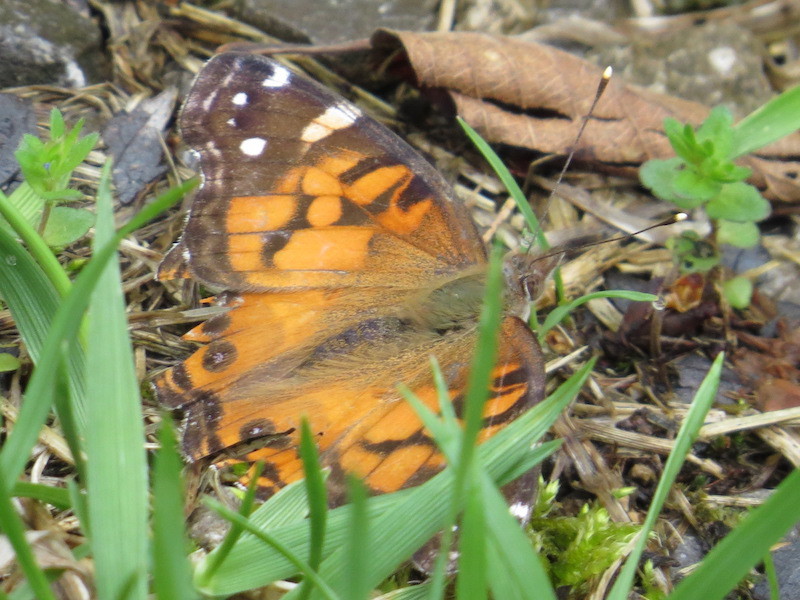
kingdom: Animalia
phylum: Arthropoda
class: Insecta
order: Lepidoptera
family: Nymphalidae
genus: Vanessa
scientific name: Vanessa virginiensis
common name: American lady
